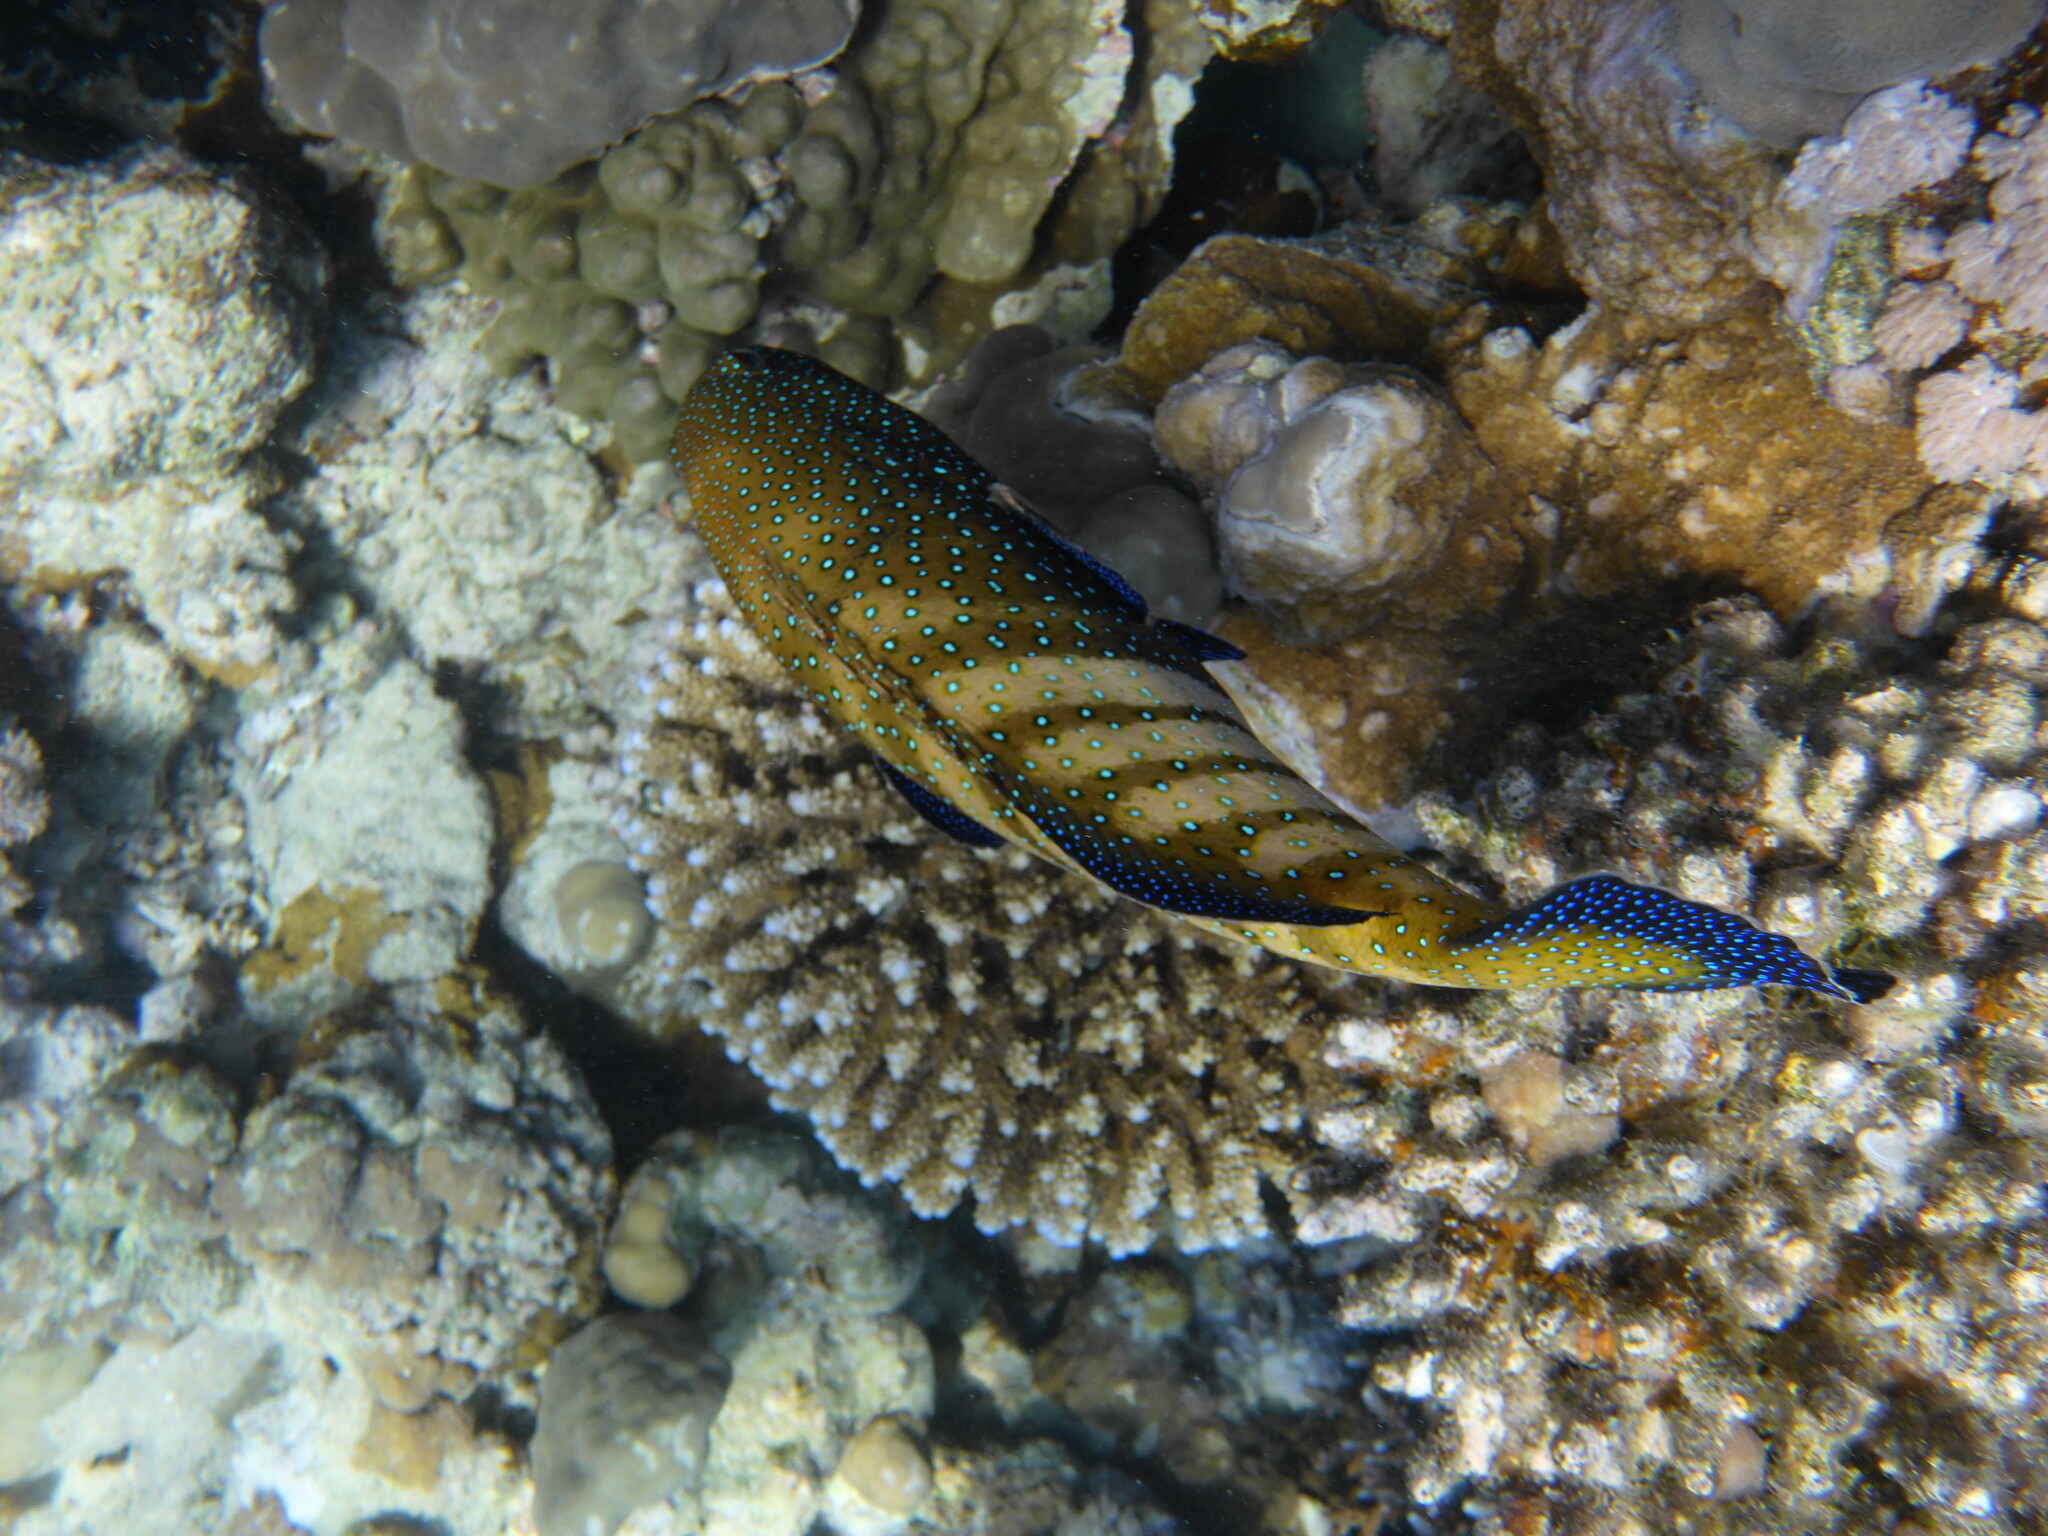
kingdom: Animalia
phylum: Chordata
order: Perciformes
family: Serranidae
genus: Cephalopholis
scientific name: Cephalopholis argus
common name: Peacock grouper
